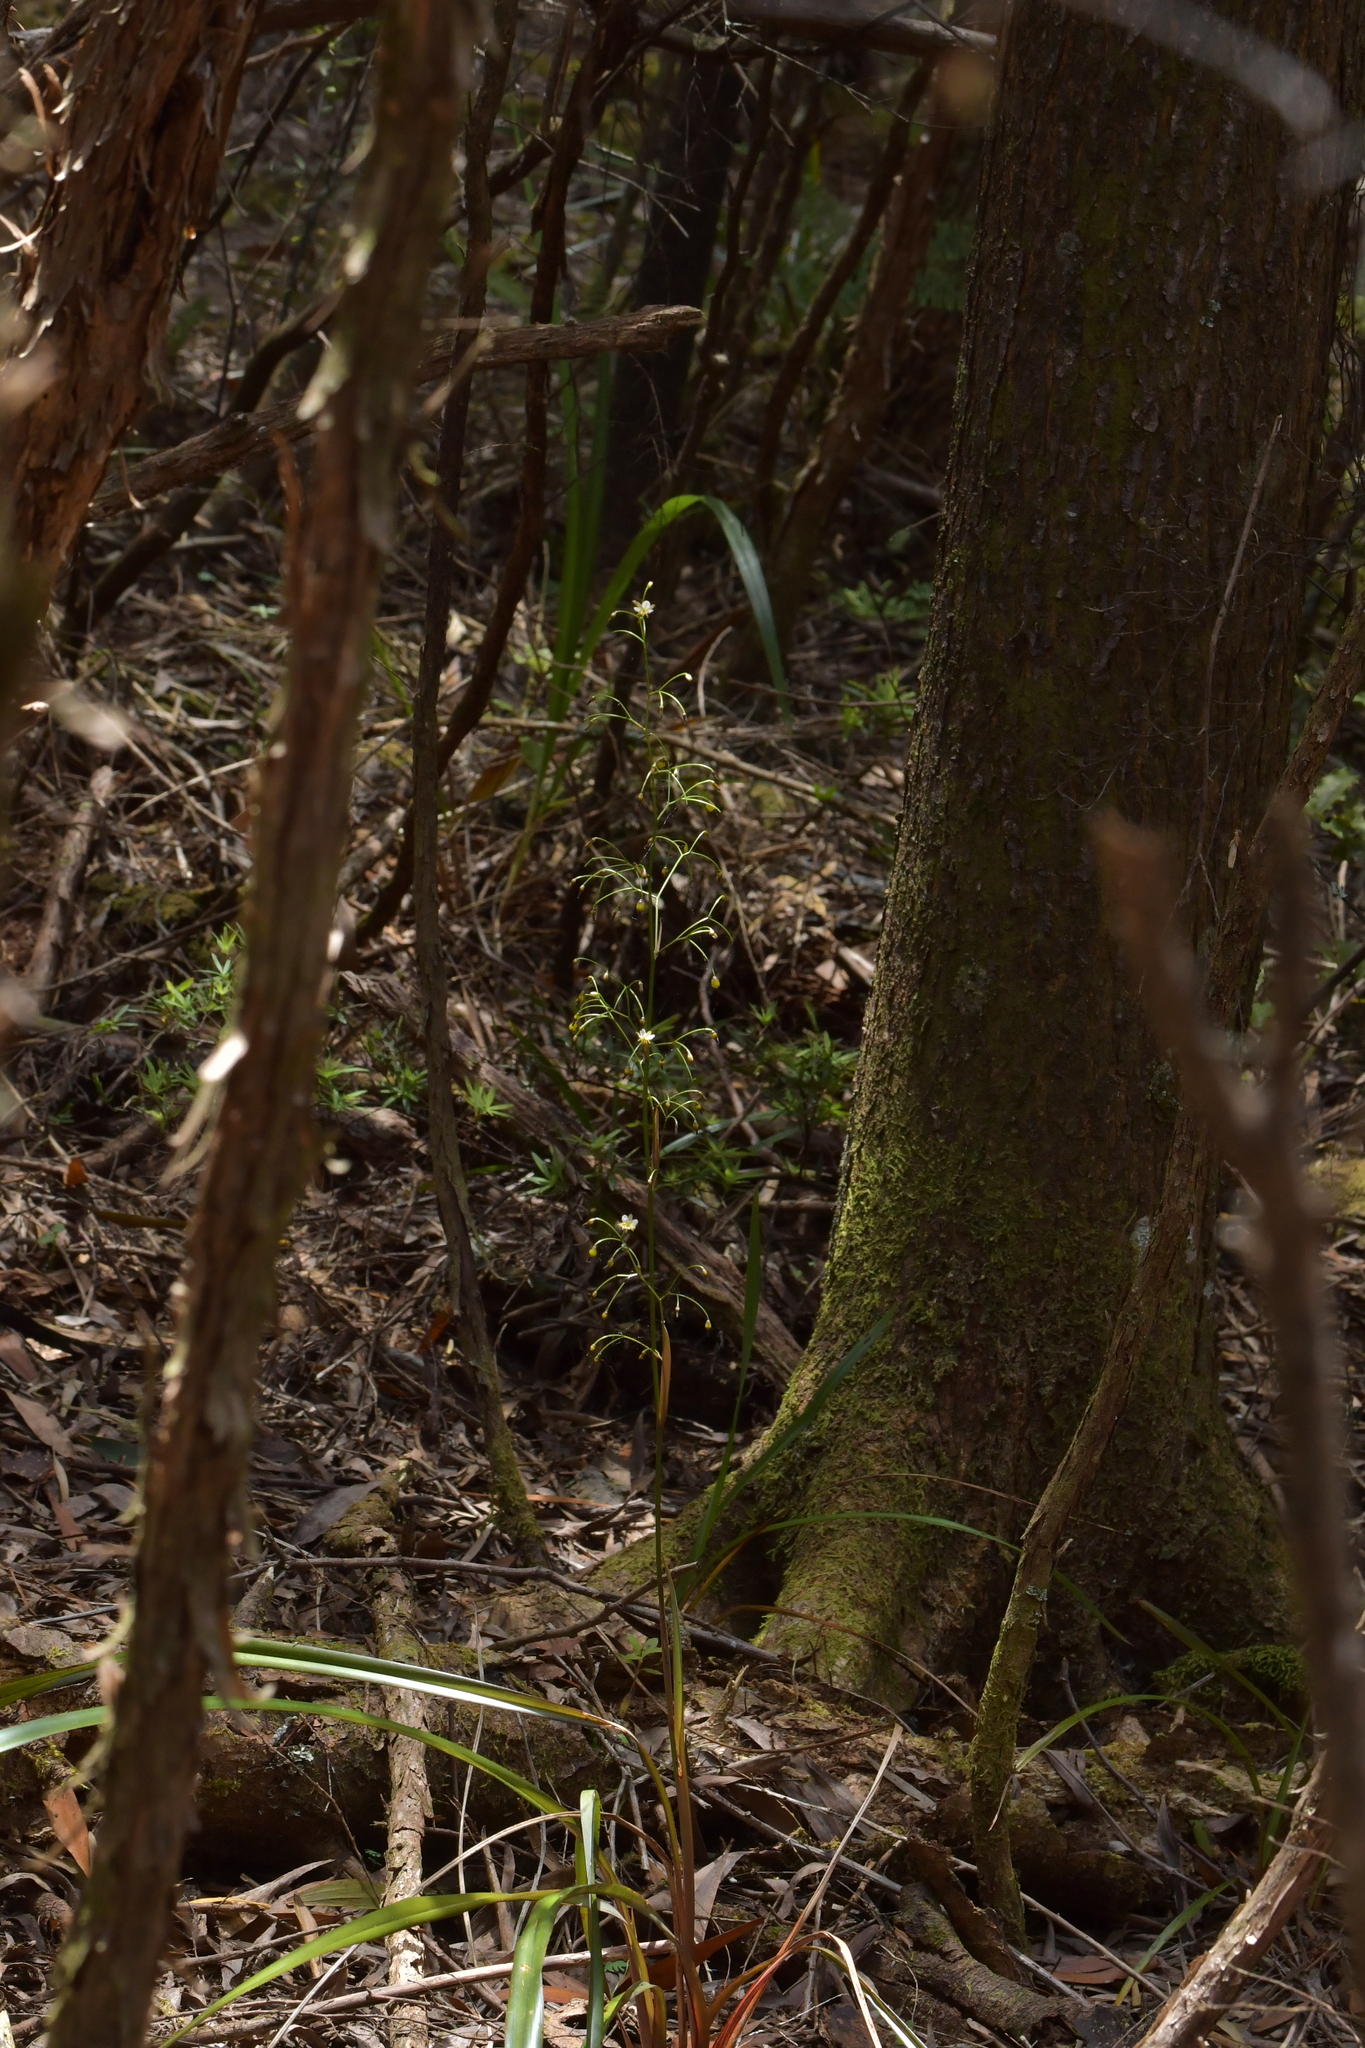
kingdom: Plantae
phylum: Tracheophyta
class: Liliopsida
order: Asparagales
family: Asphodelaceae
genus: Dianella
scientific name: Dianella nigra
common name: New zealand-blueberry
